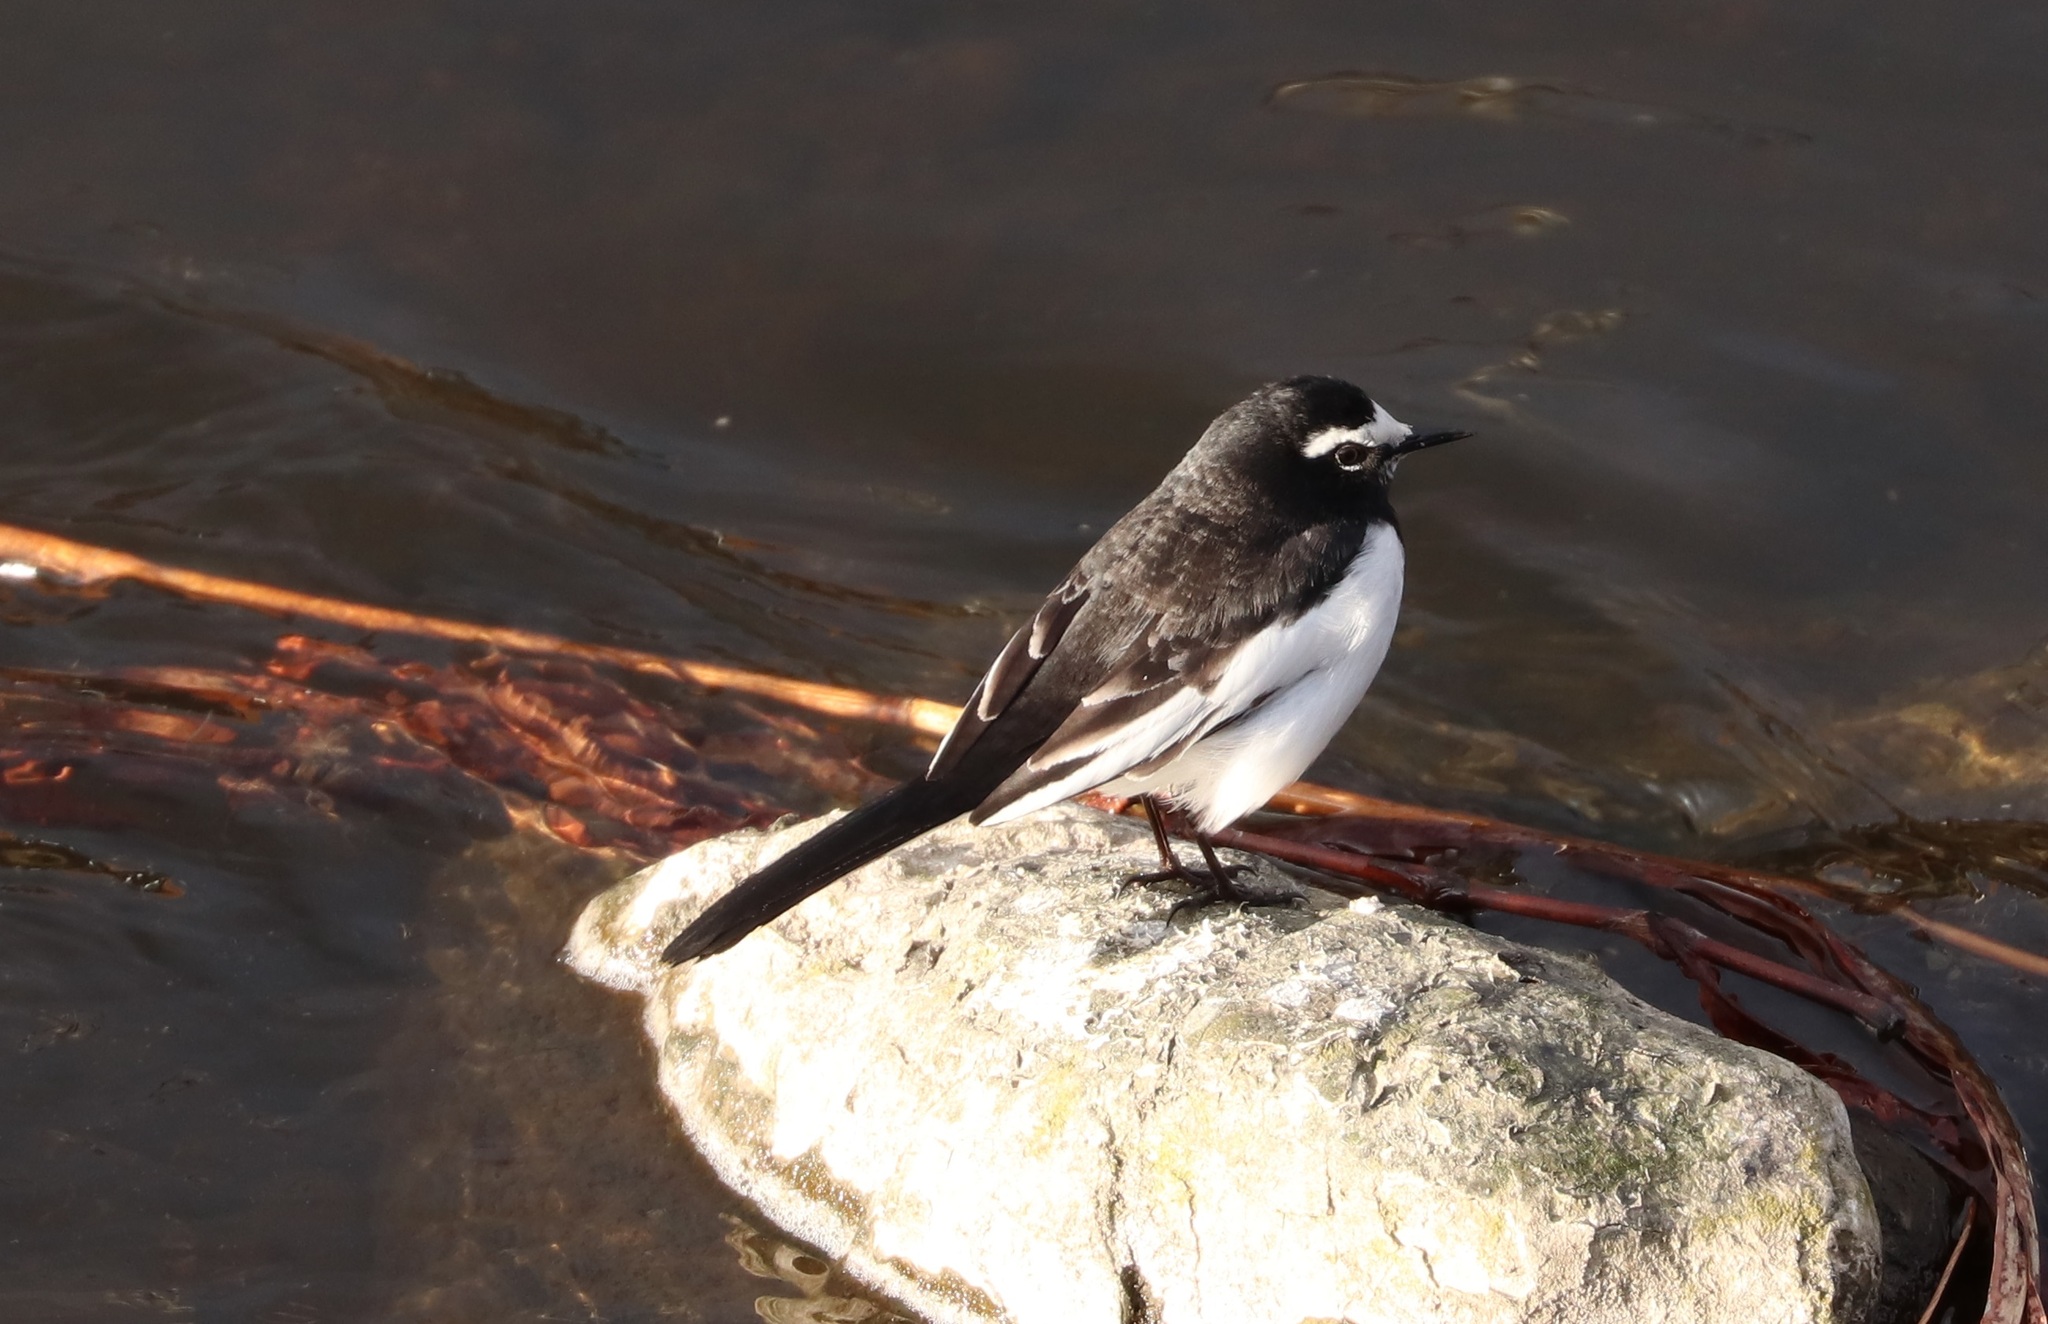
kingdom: Animalia
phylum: Chordata
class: Aves
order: Passeriformes
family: Motacillidae
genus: Motacilla
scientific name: Motacilla grandis
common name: Japanese wagtail
